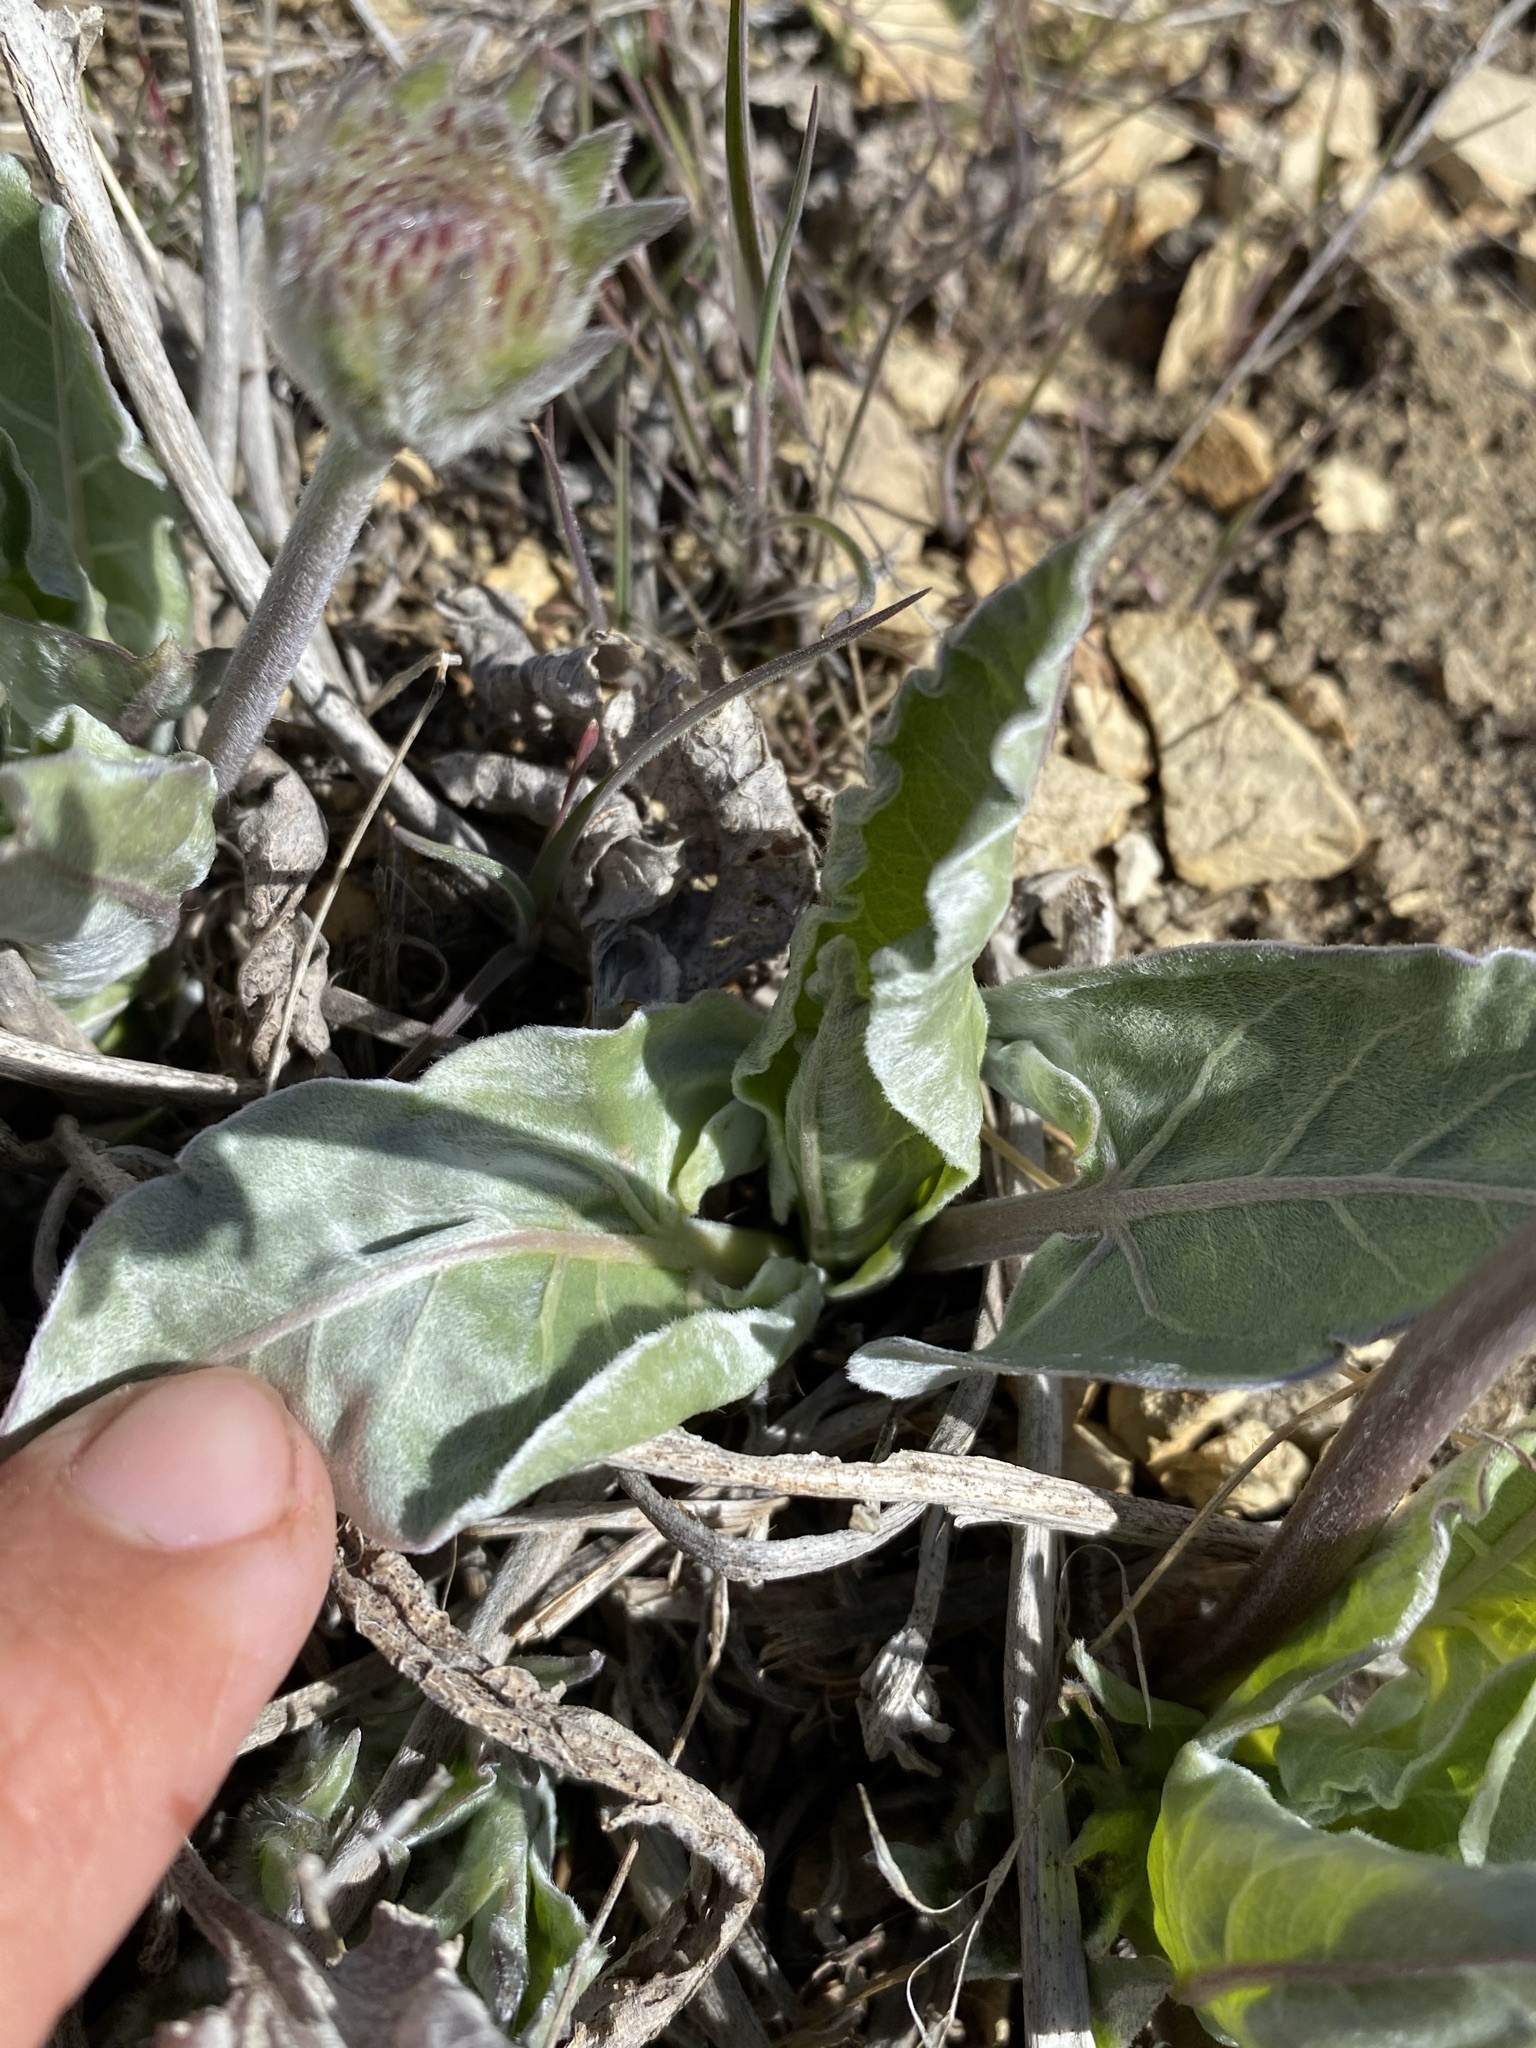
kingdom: Plantae
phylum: Tracheophyta
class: Magnoliopsida
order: Asterales
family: Asteraceae
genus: Wyethia
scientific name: Wyethia sagittata
